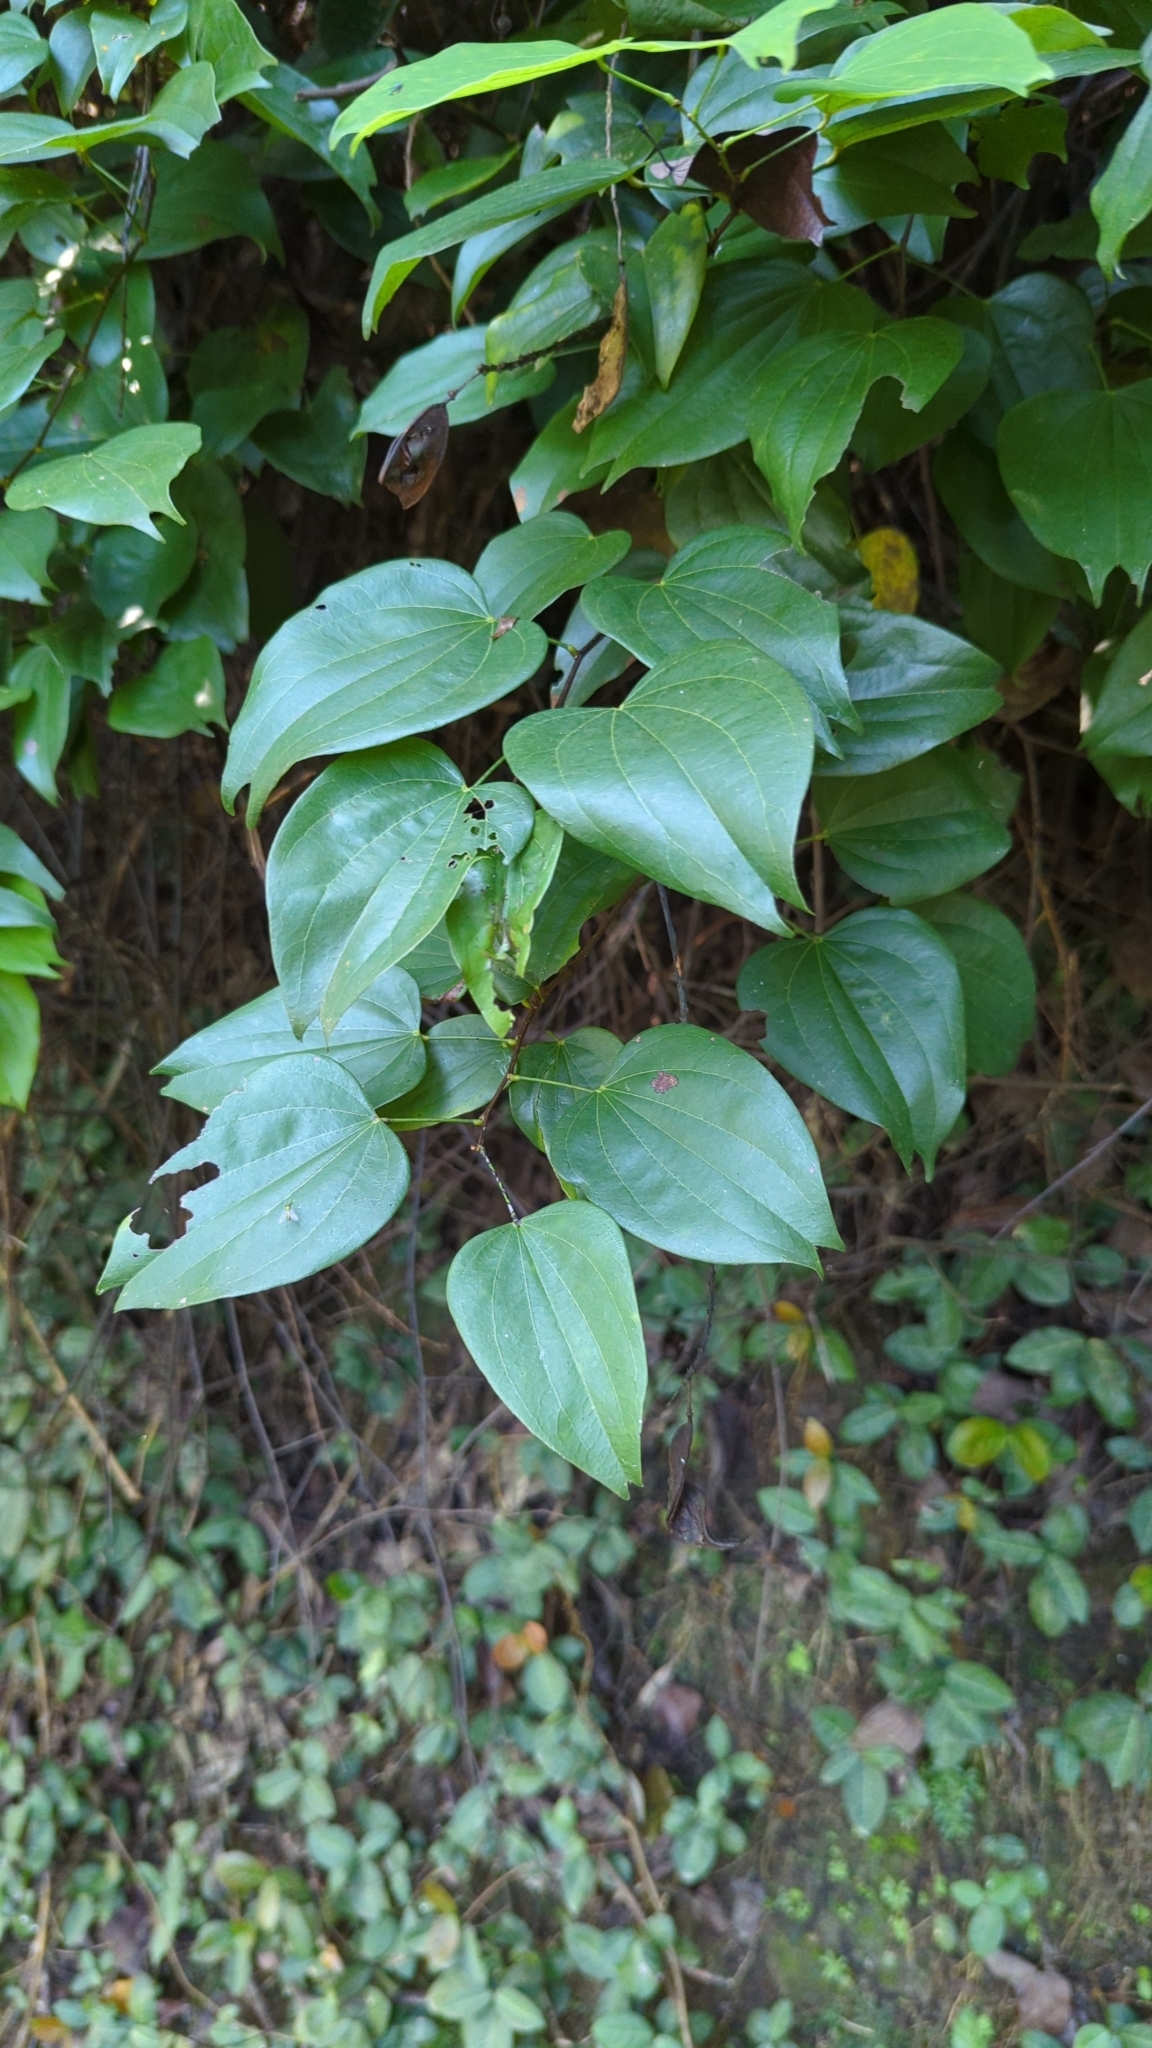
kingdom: Plantae
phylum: Tracheophyta
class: Magnoliopsida
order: Fabales
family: Fabaceae
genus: Phanera
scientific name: Phanera championii
